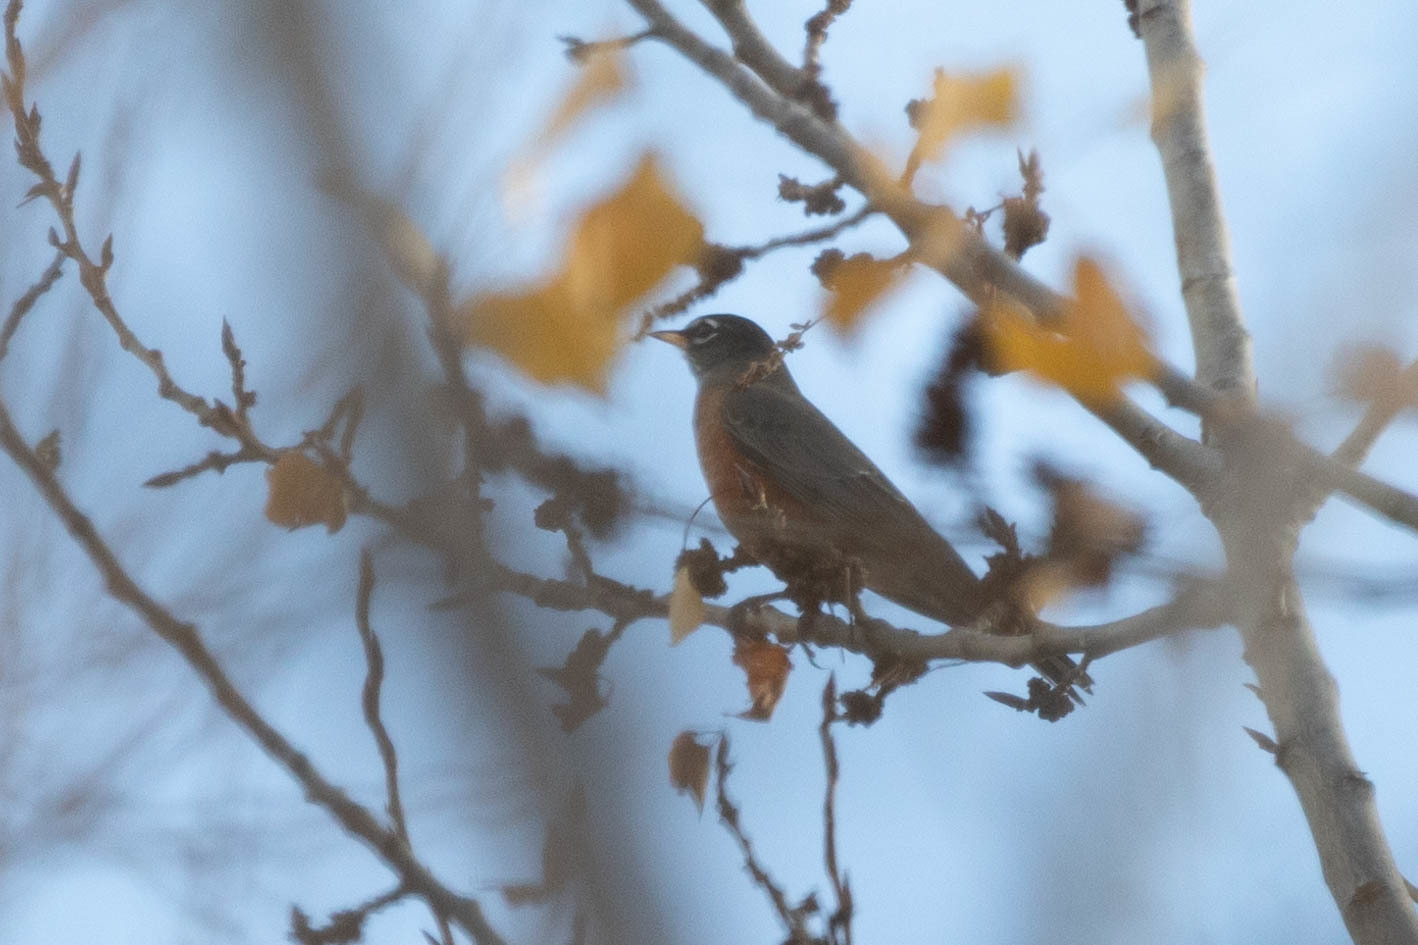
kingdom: Animalia
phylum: Chordata
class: Aves
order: Passeriformes
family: Turdidae
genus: Turdus
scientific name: Turdus migratorius
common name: American robin
